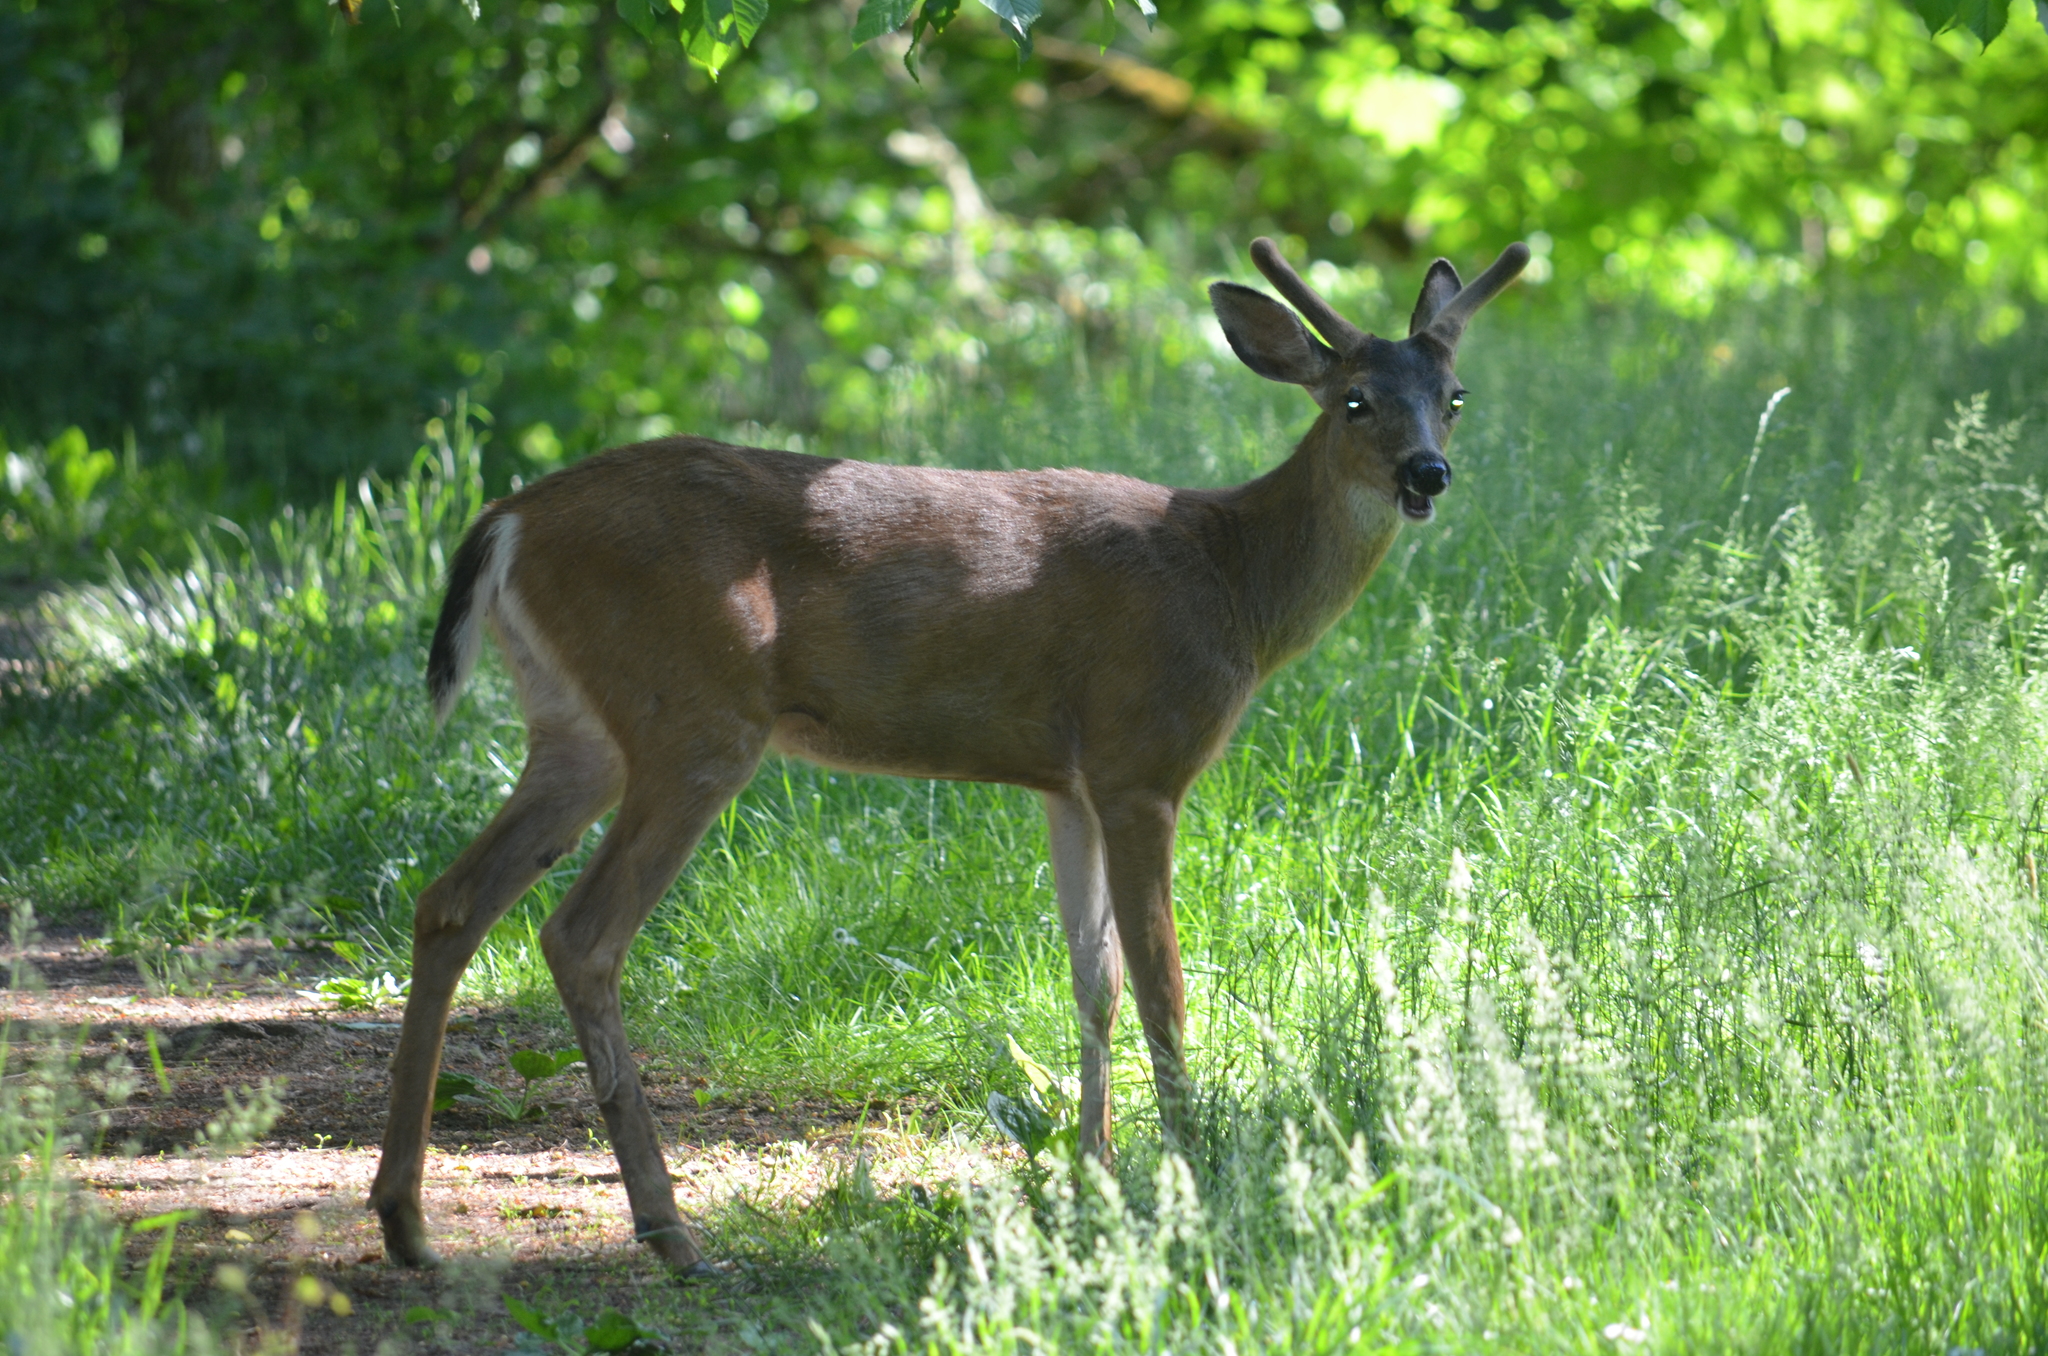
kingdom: Animalia
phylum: Chordata
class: Mammalia
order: Artiodactyla
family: Cervidae
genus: Odocoileus
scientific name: Odocoileus hemionus
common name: Mule deer
